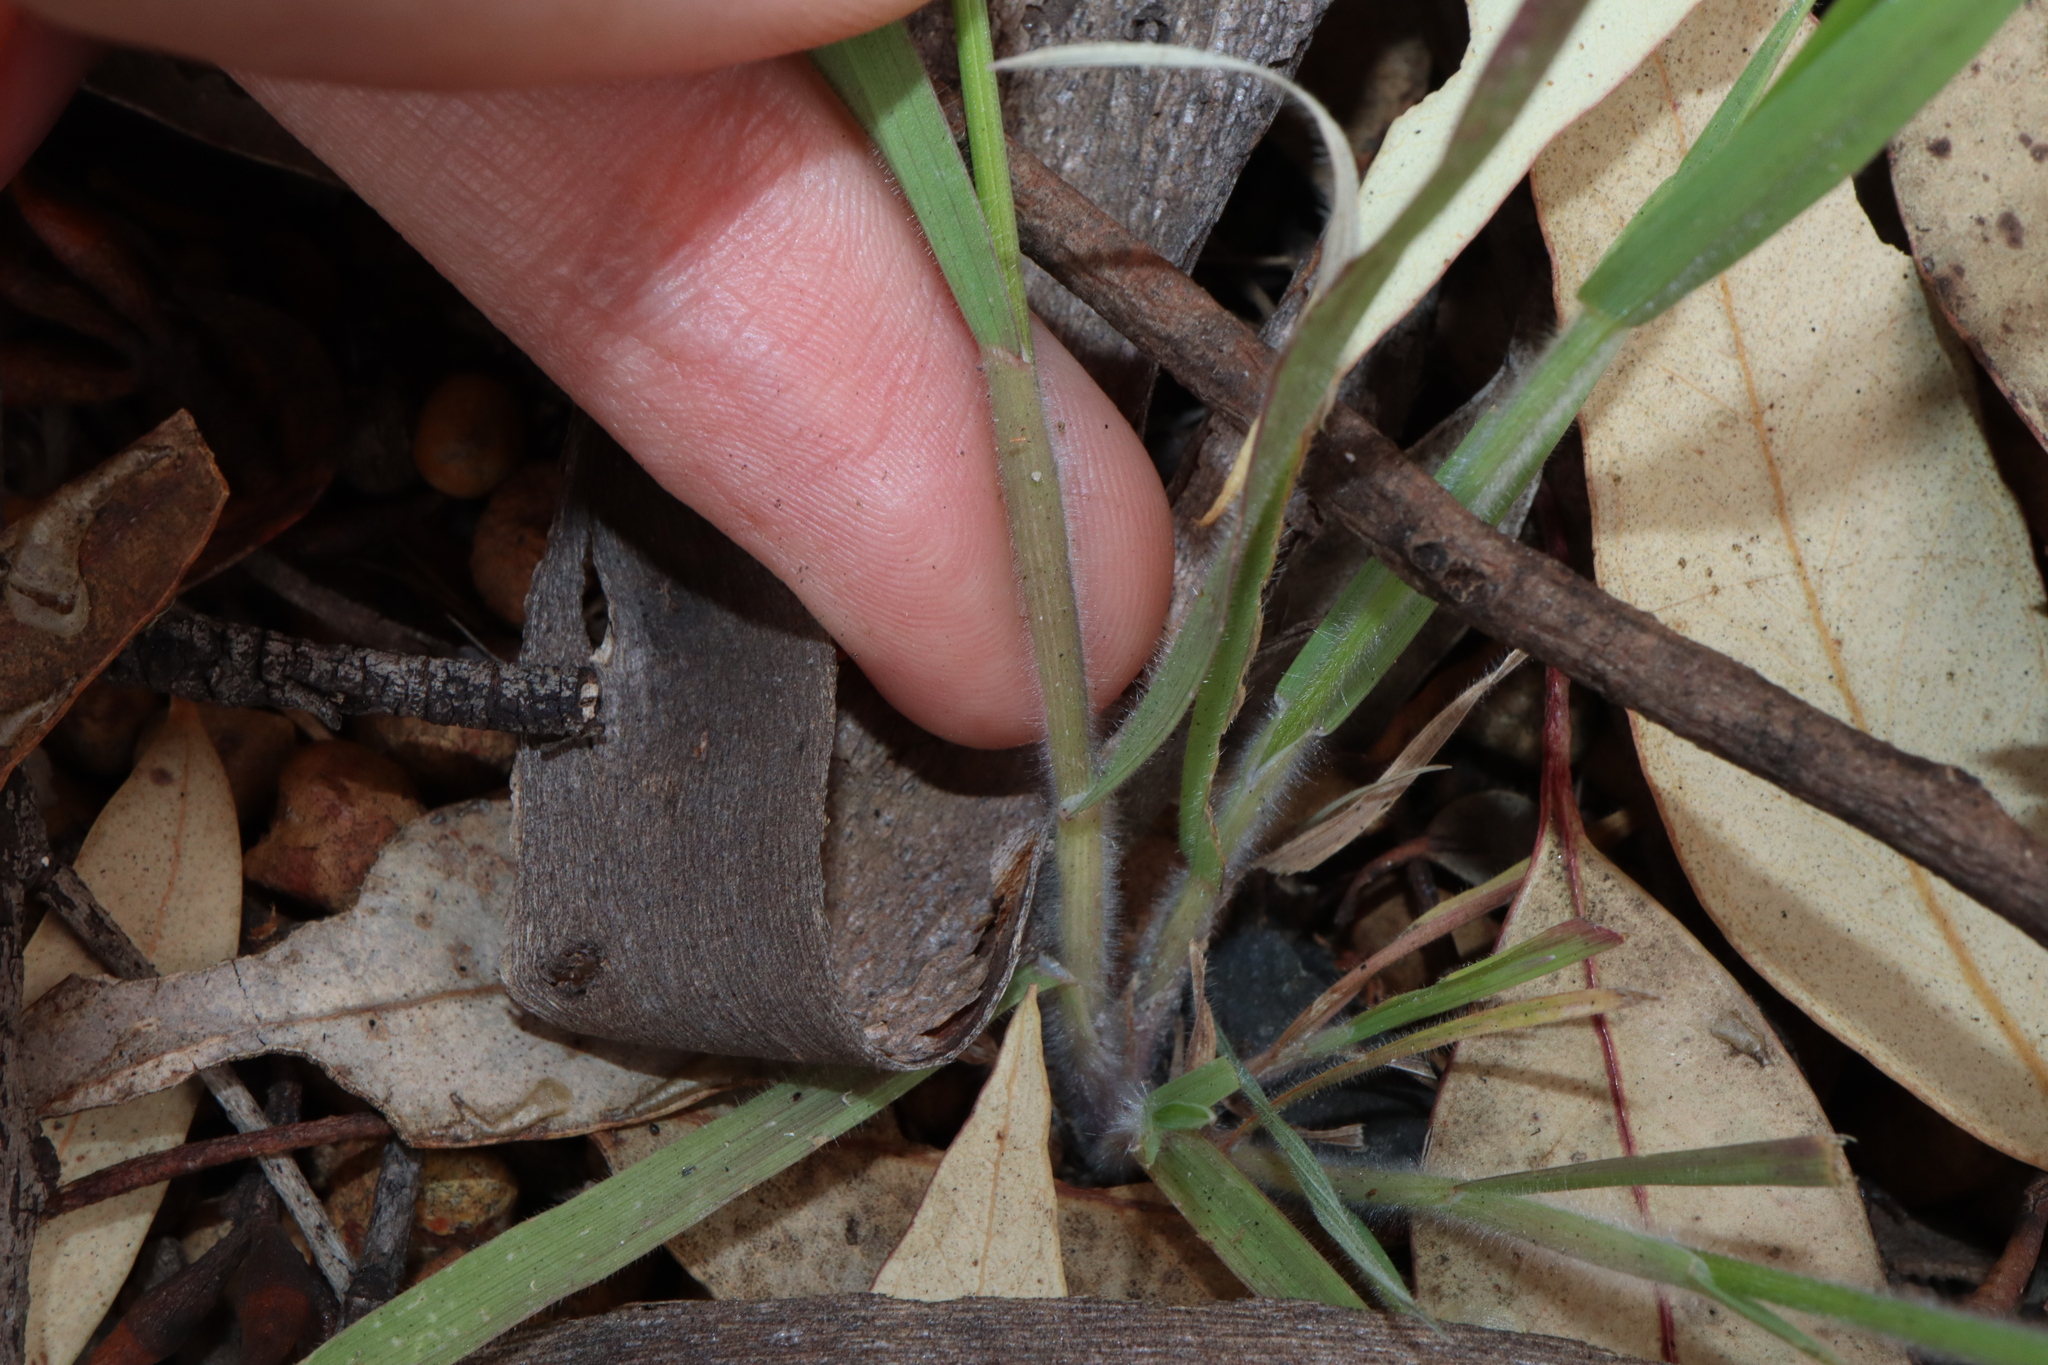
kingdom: Plantae
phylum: Tracheophyta
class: Liliopsida
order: Poales
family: Poaceae
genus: Bromus
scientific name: Bromus hordeaceus
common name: Soft brome
